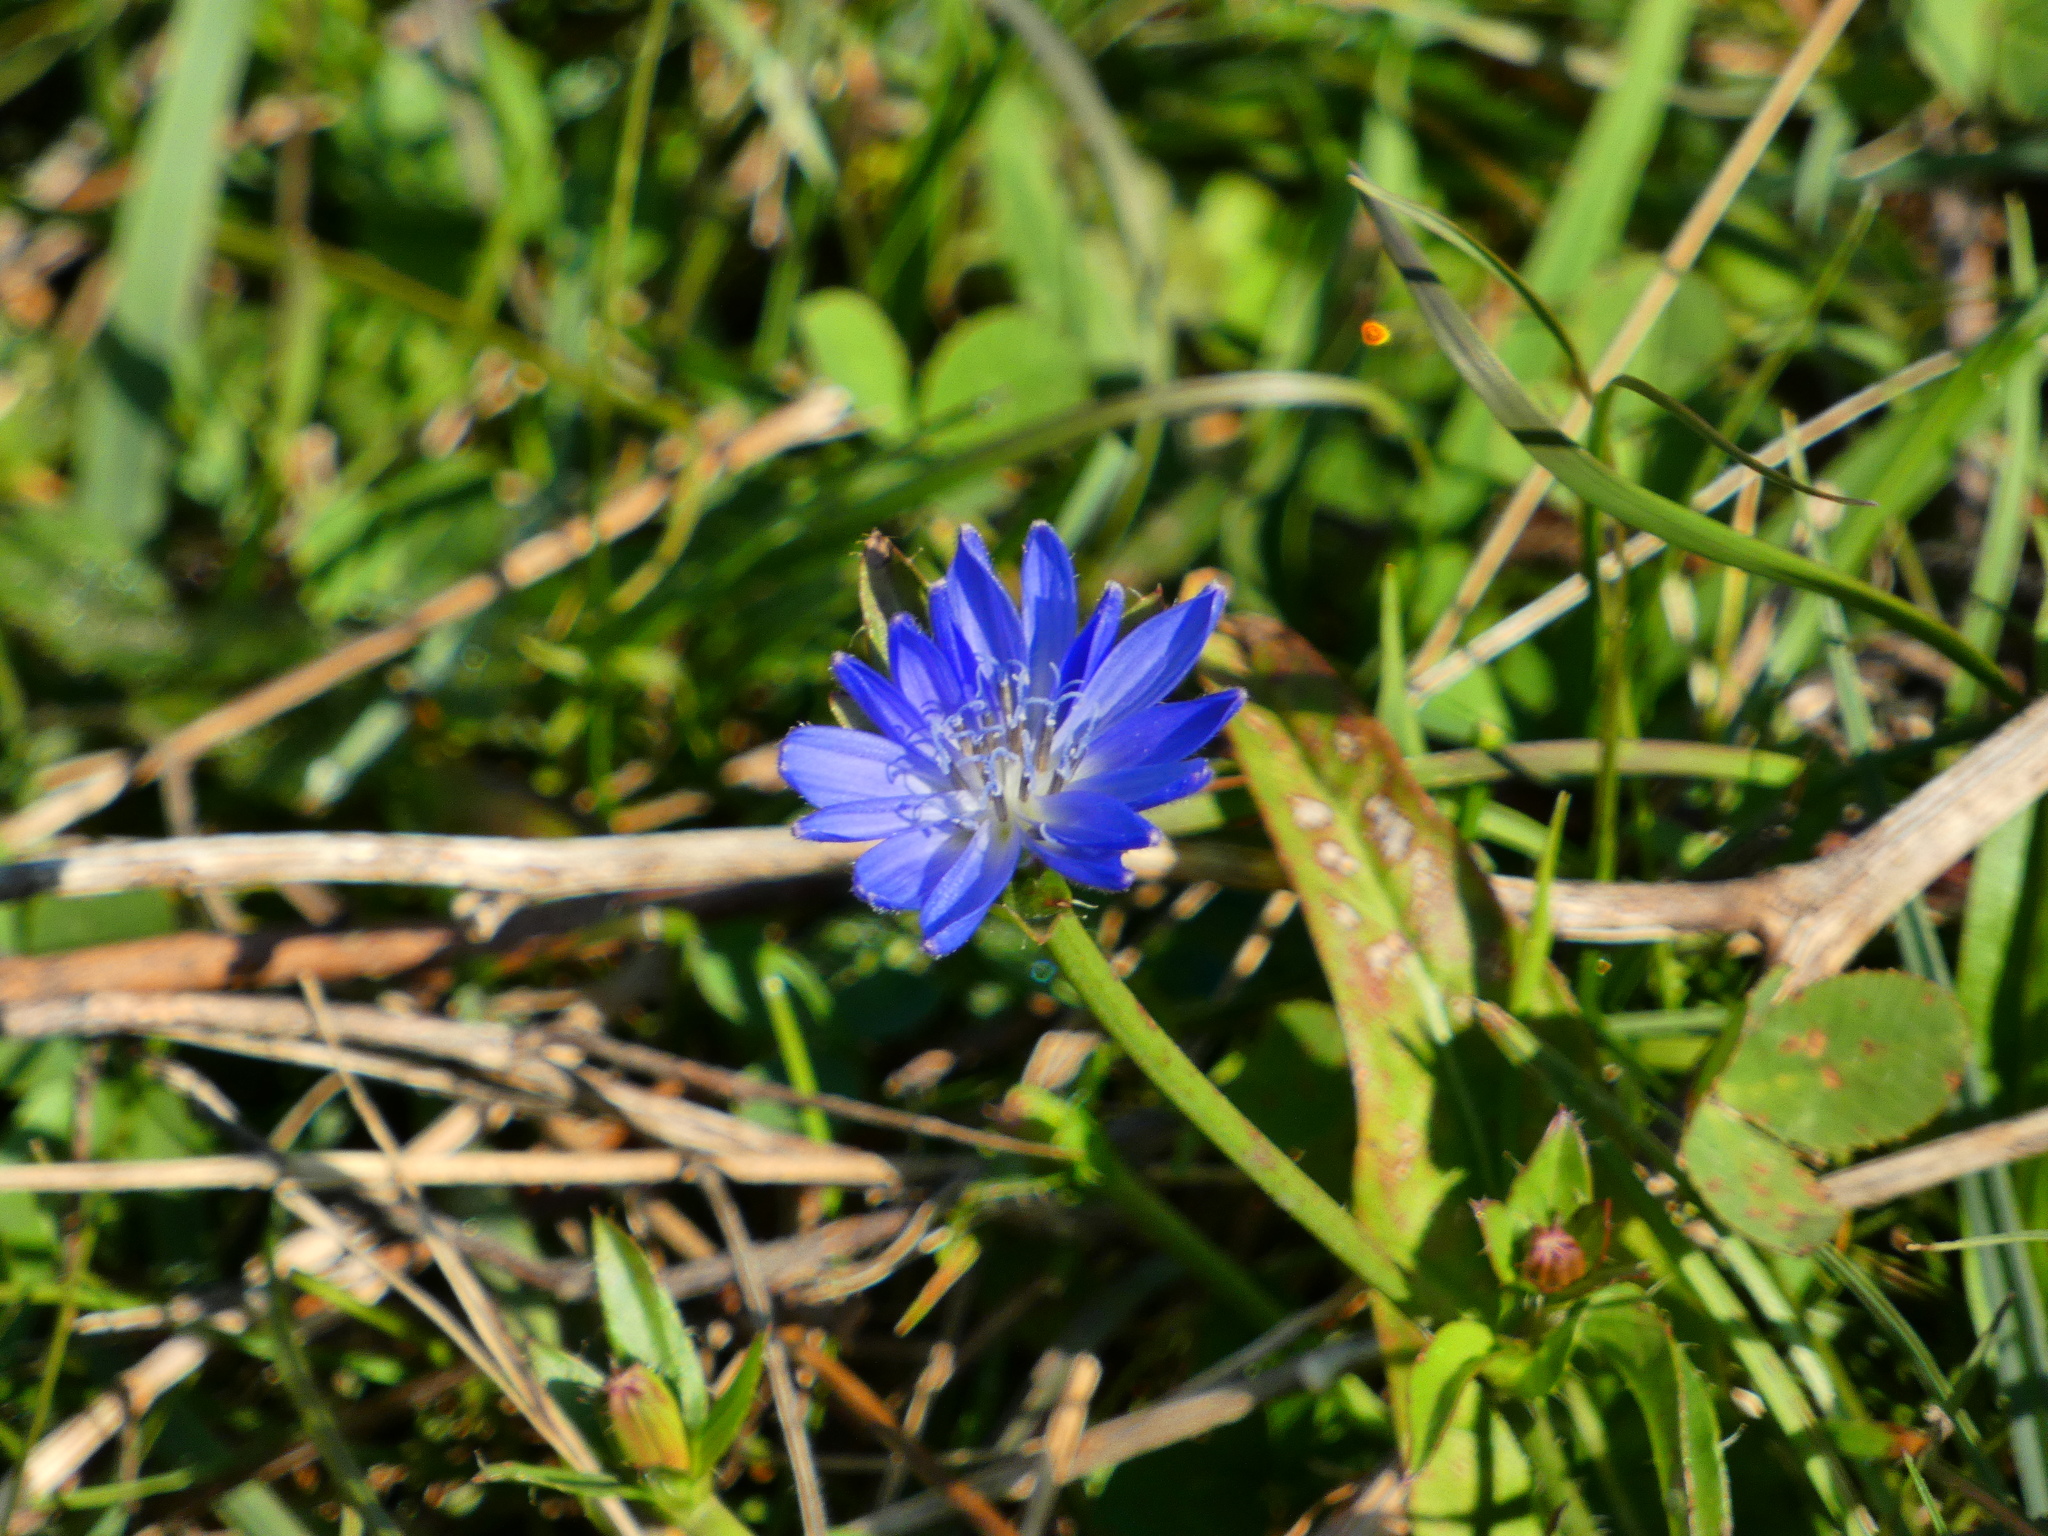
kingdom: Plantae
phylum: Tracheophyta
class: Magnoliopsida
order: Asterales
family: Asteraceae
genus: Cichorium
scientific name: Cichorium intybus
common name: Chicory
